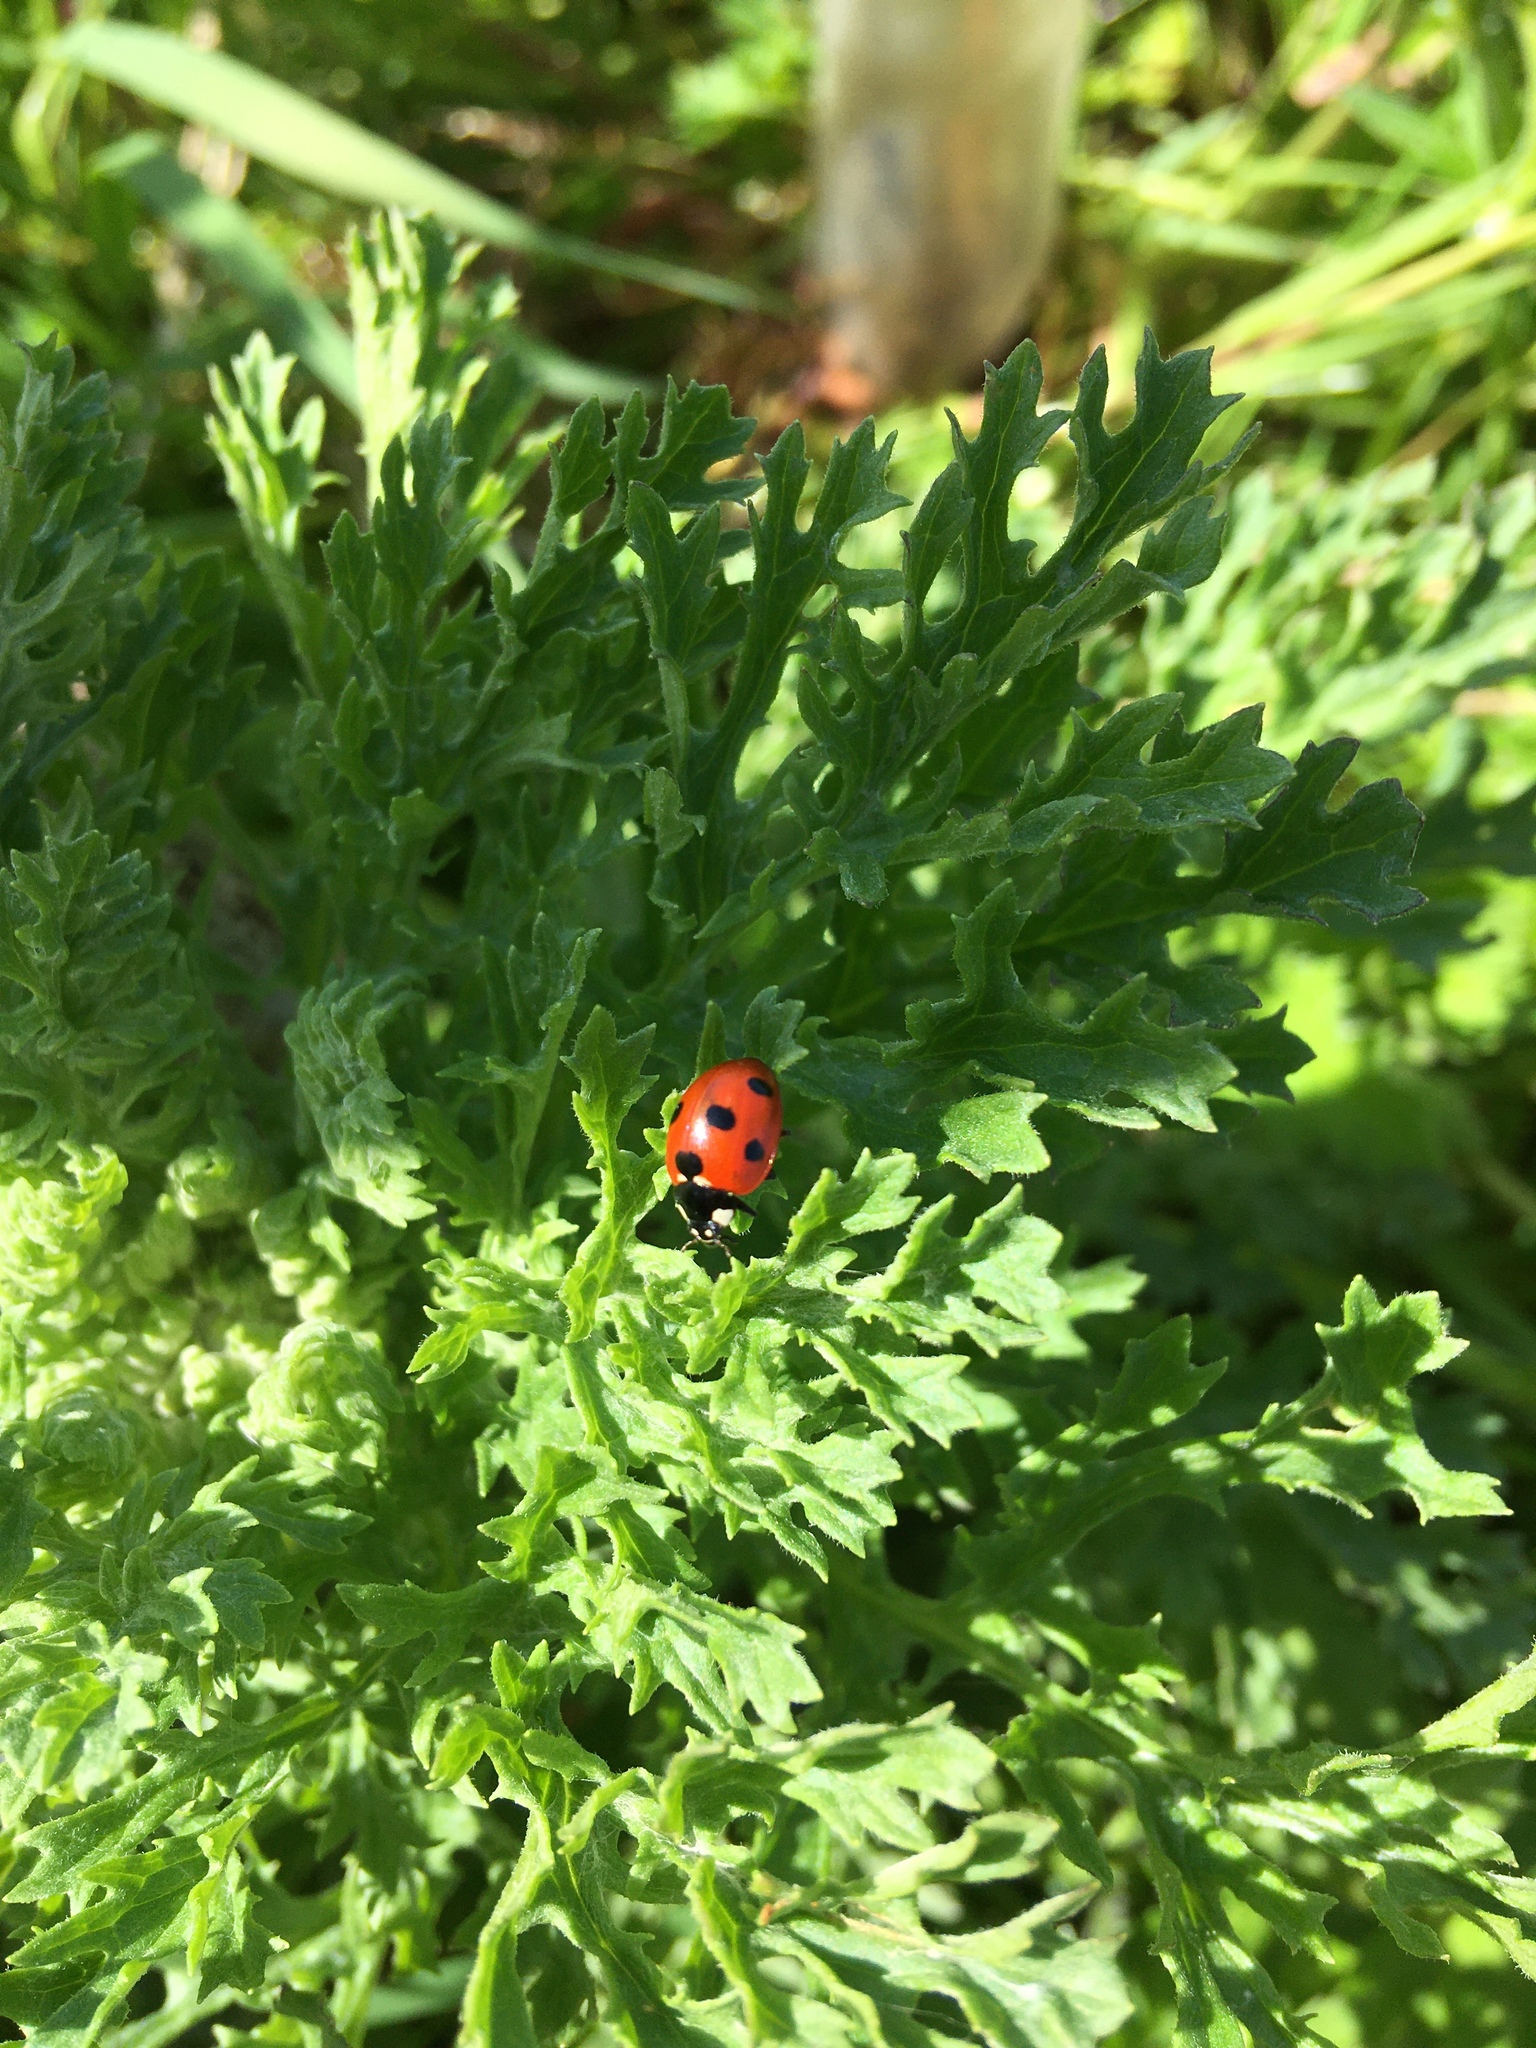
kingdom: Animalia
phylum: Arthropoda
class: Insecta
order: Coleoptera
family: Coccinellidae
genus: Coccinella
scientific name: Coccinella septempunctata
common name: Sevenspotted lady beetle
